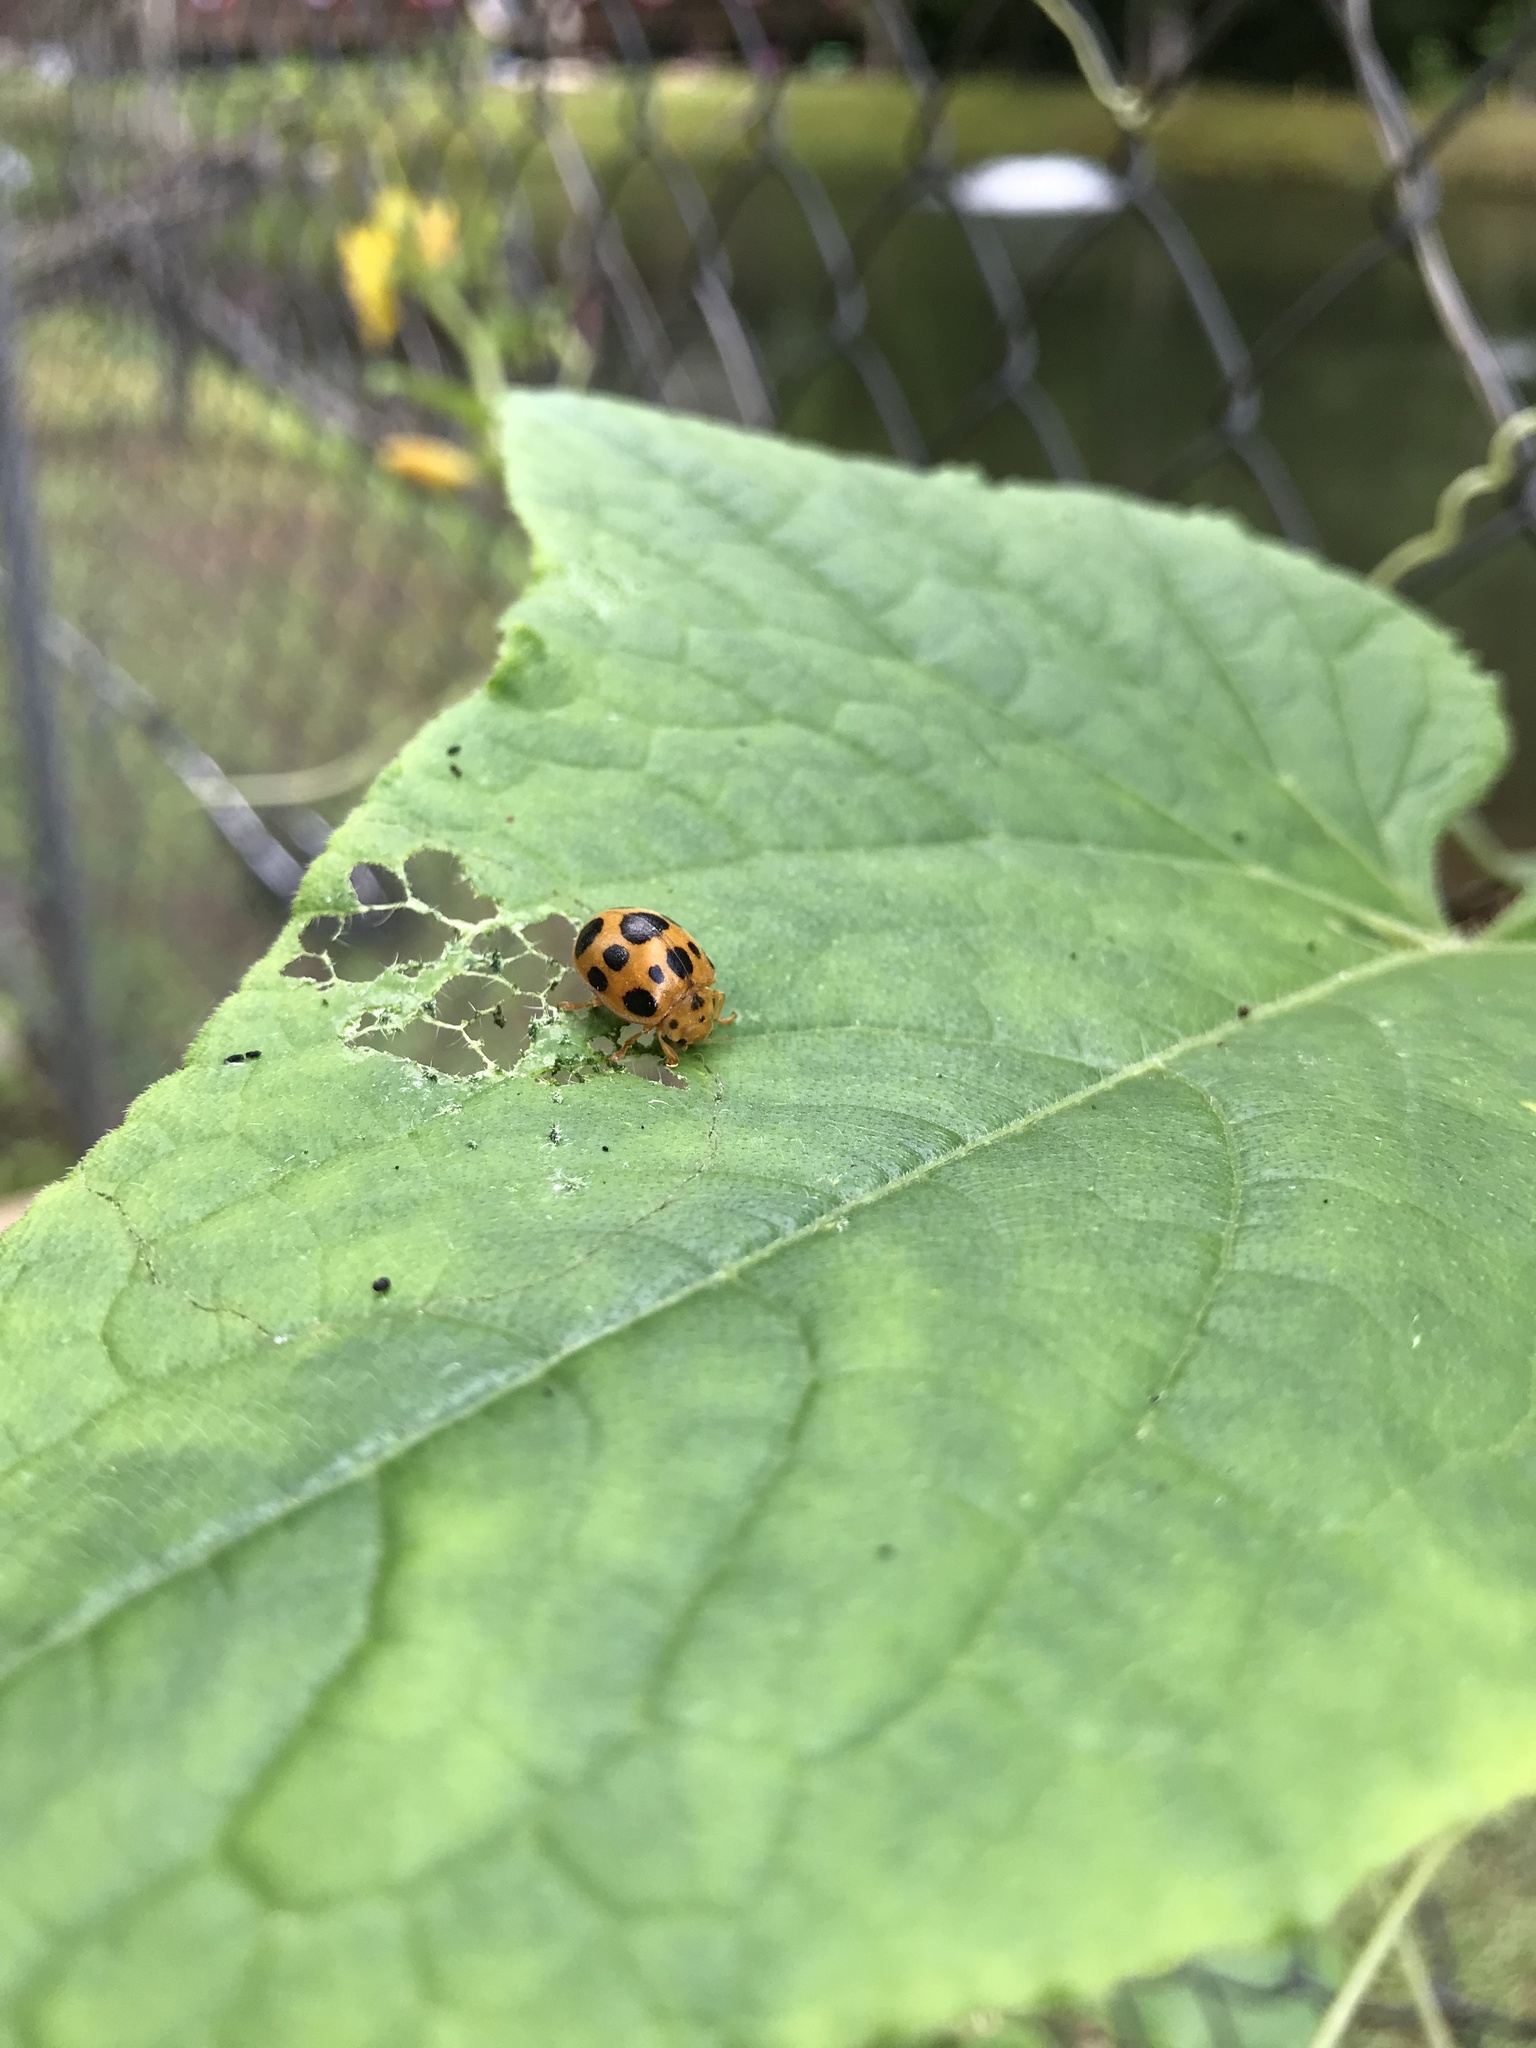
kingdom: Animalia
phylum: Arthropoda
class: Insecta
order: Coleoptera
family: Coccinellidae
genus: Epilachna
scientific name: Epilachna borealis
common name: Squash beetle
